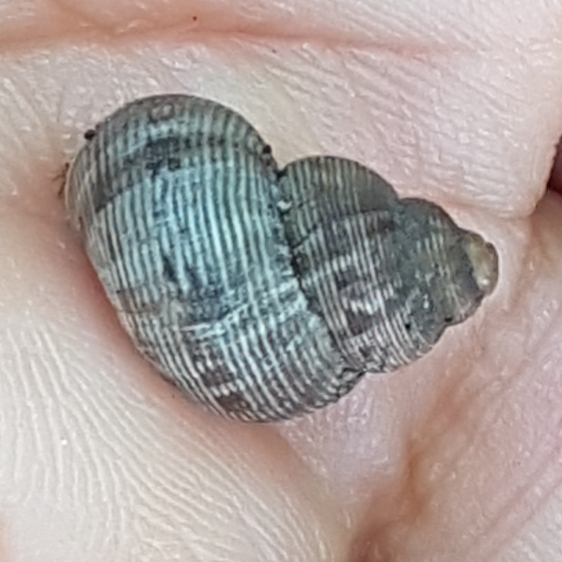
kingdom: Animalia
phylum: Mollusca
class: Gastropoda
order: Littorinimorpha
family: Pomatiidae
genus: Pomatias
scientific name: Pomatias elegans
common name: Red-mouthed snail
